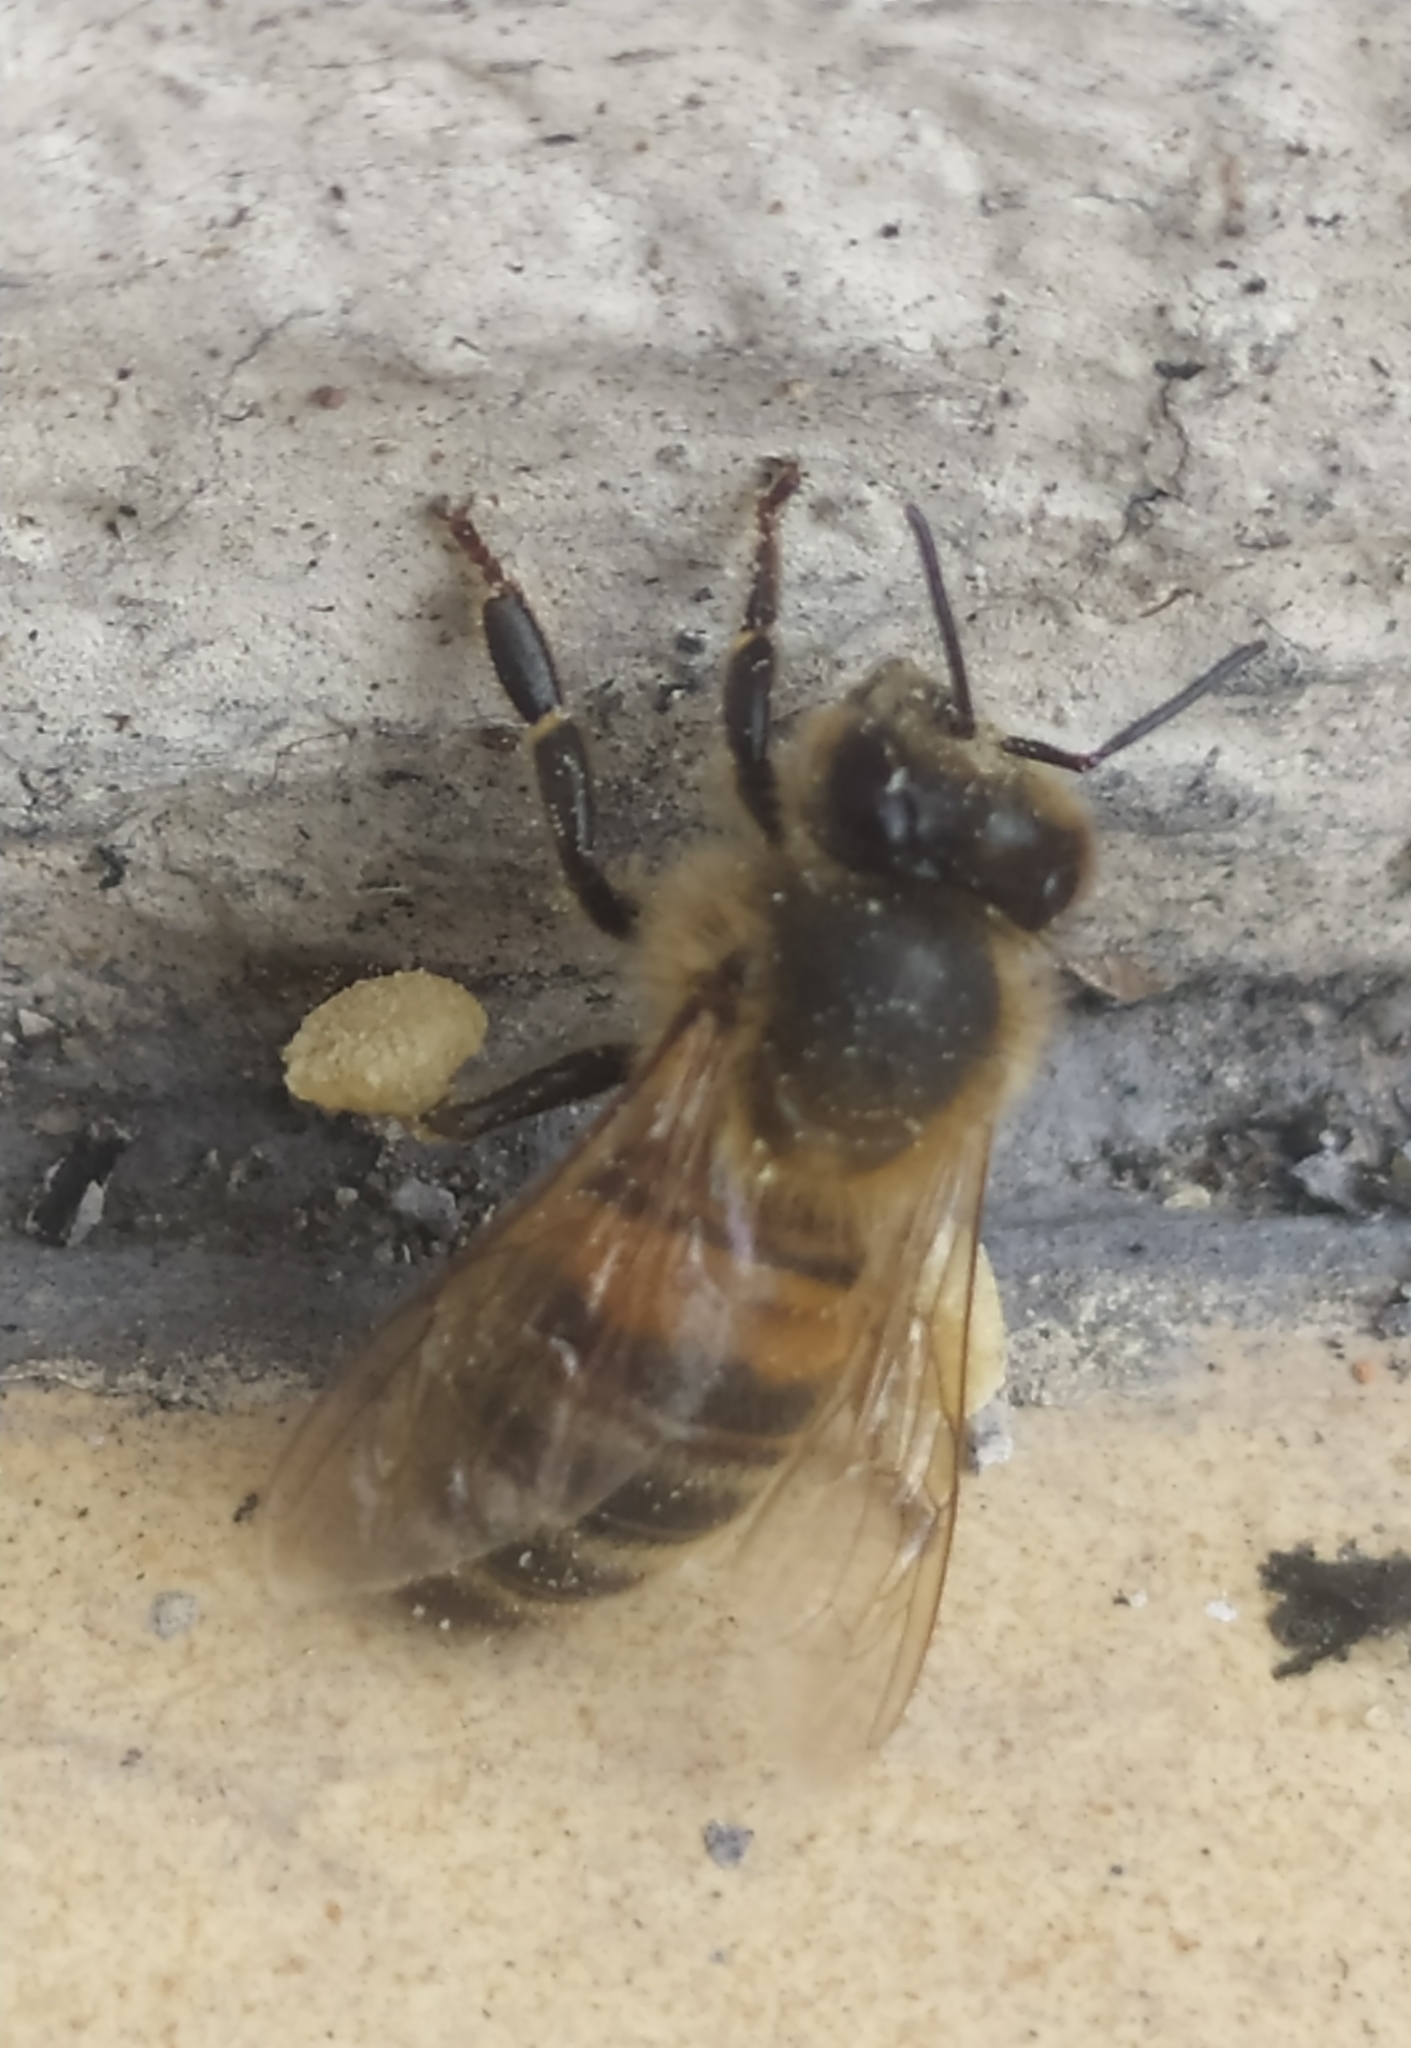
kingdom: Animalia
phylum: Arthropoda
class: Insecta
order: Hymenoptera
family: Apidae
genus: Apis
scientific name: Apis mellifera
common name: Honey bee
